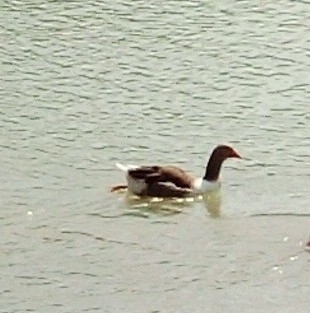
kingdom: Animalia
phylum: Chordata
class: Aves
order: Anseriformes
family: Anatidae
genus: Anser
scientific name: Anser anser
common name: Greylag goose
